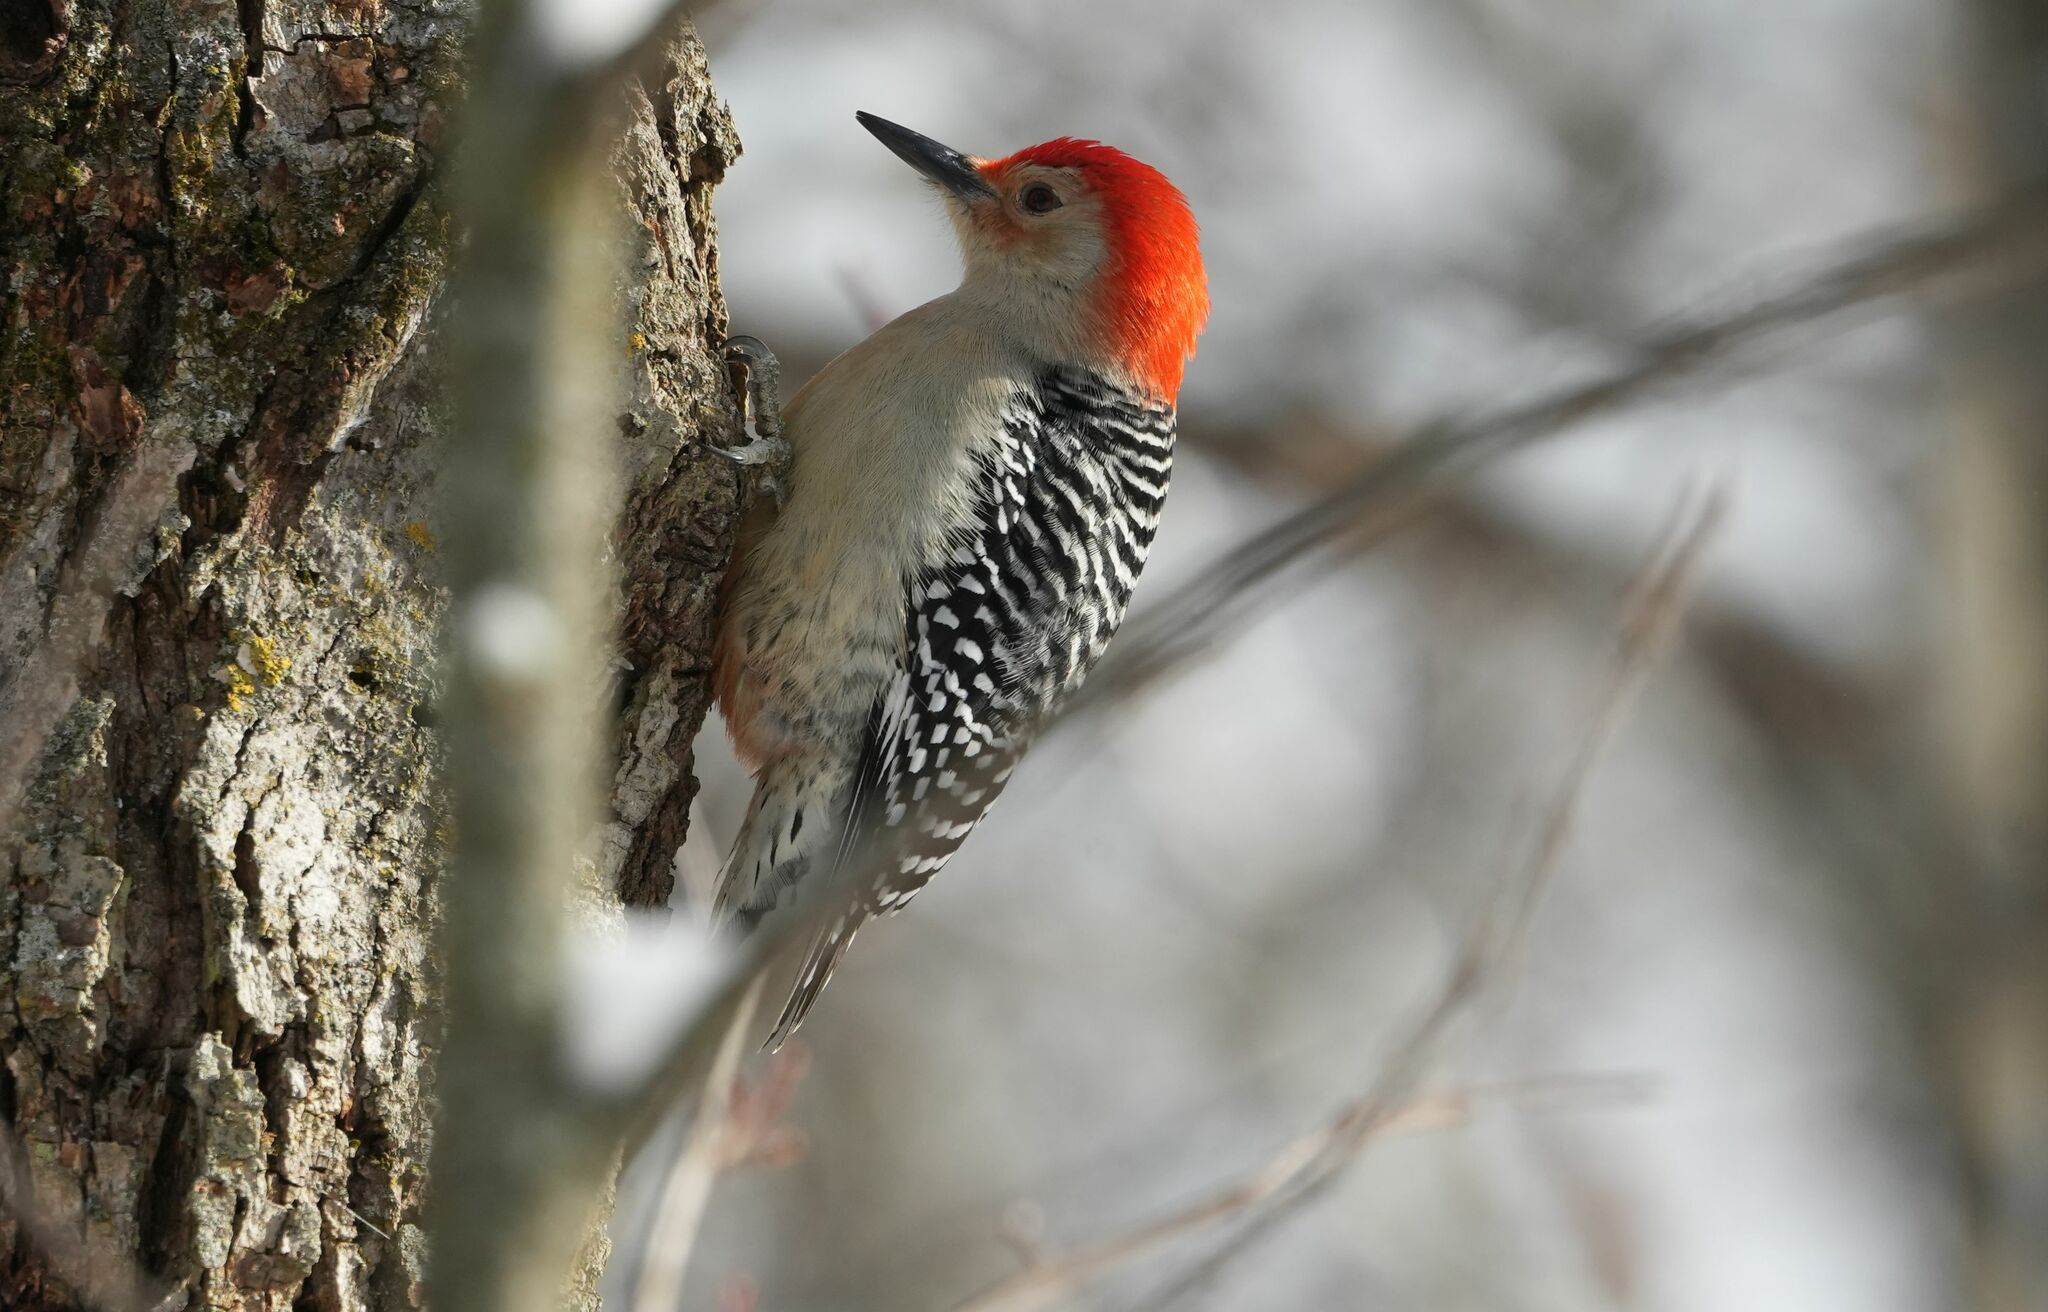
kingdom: Animalia
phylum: Chordata
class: Aves
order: Piciformes
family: Picidae
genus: Melanerpes
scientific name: Melanerpes carolinus
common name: Red-bellied woodpecker
